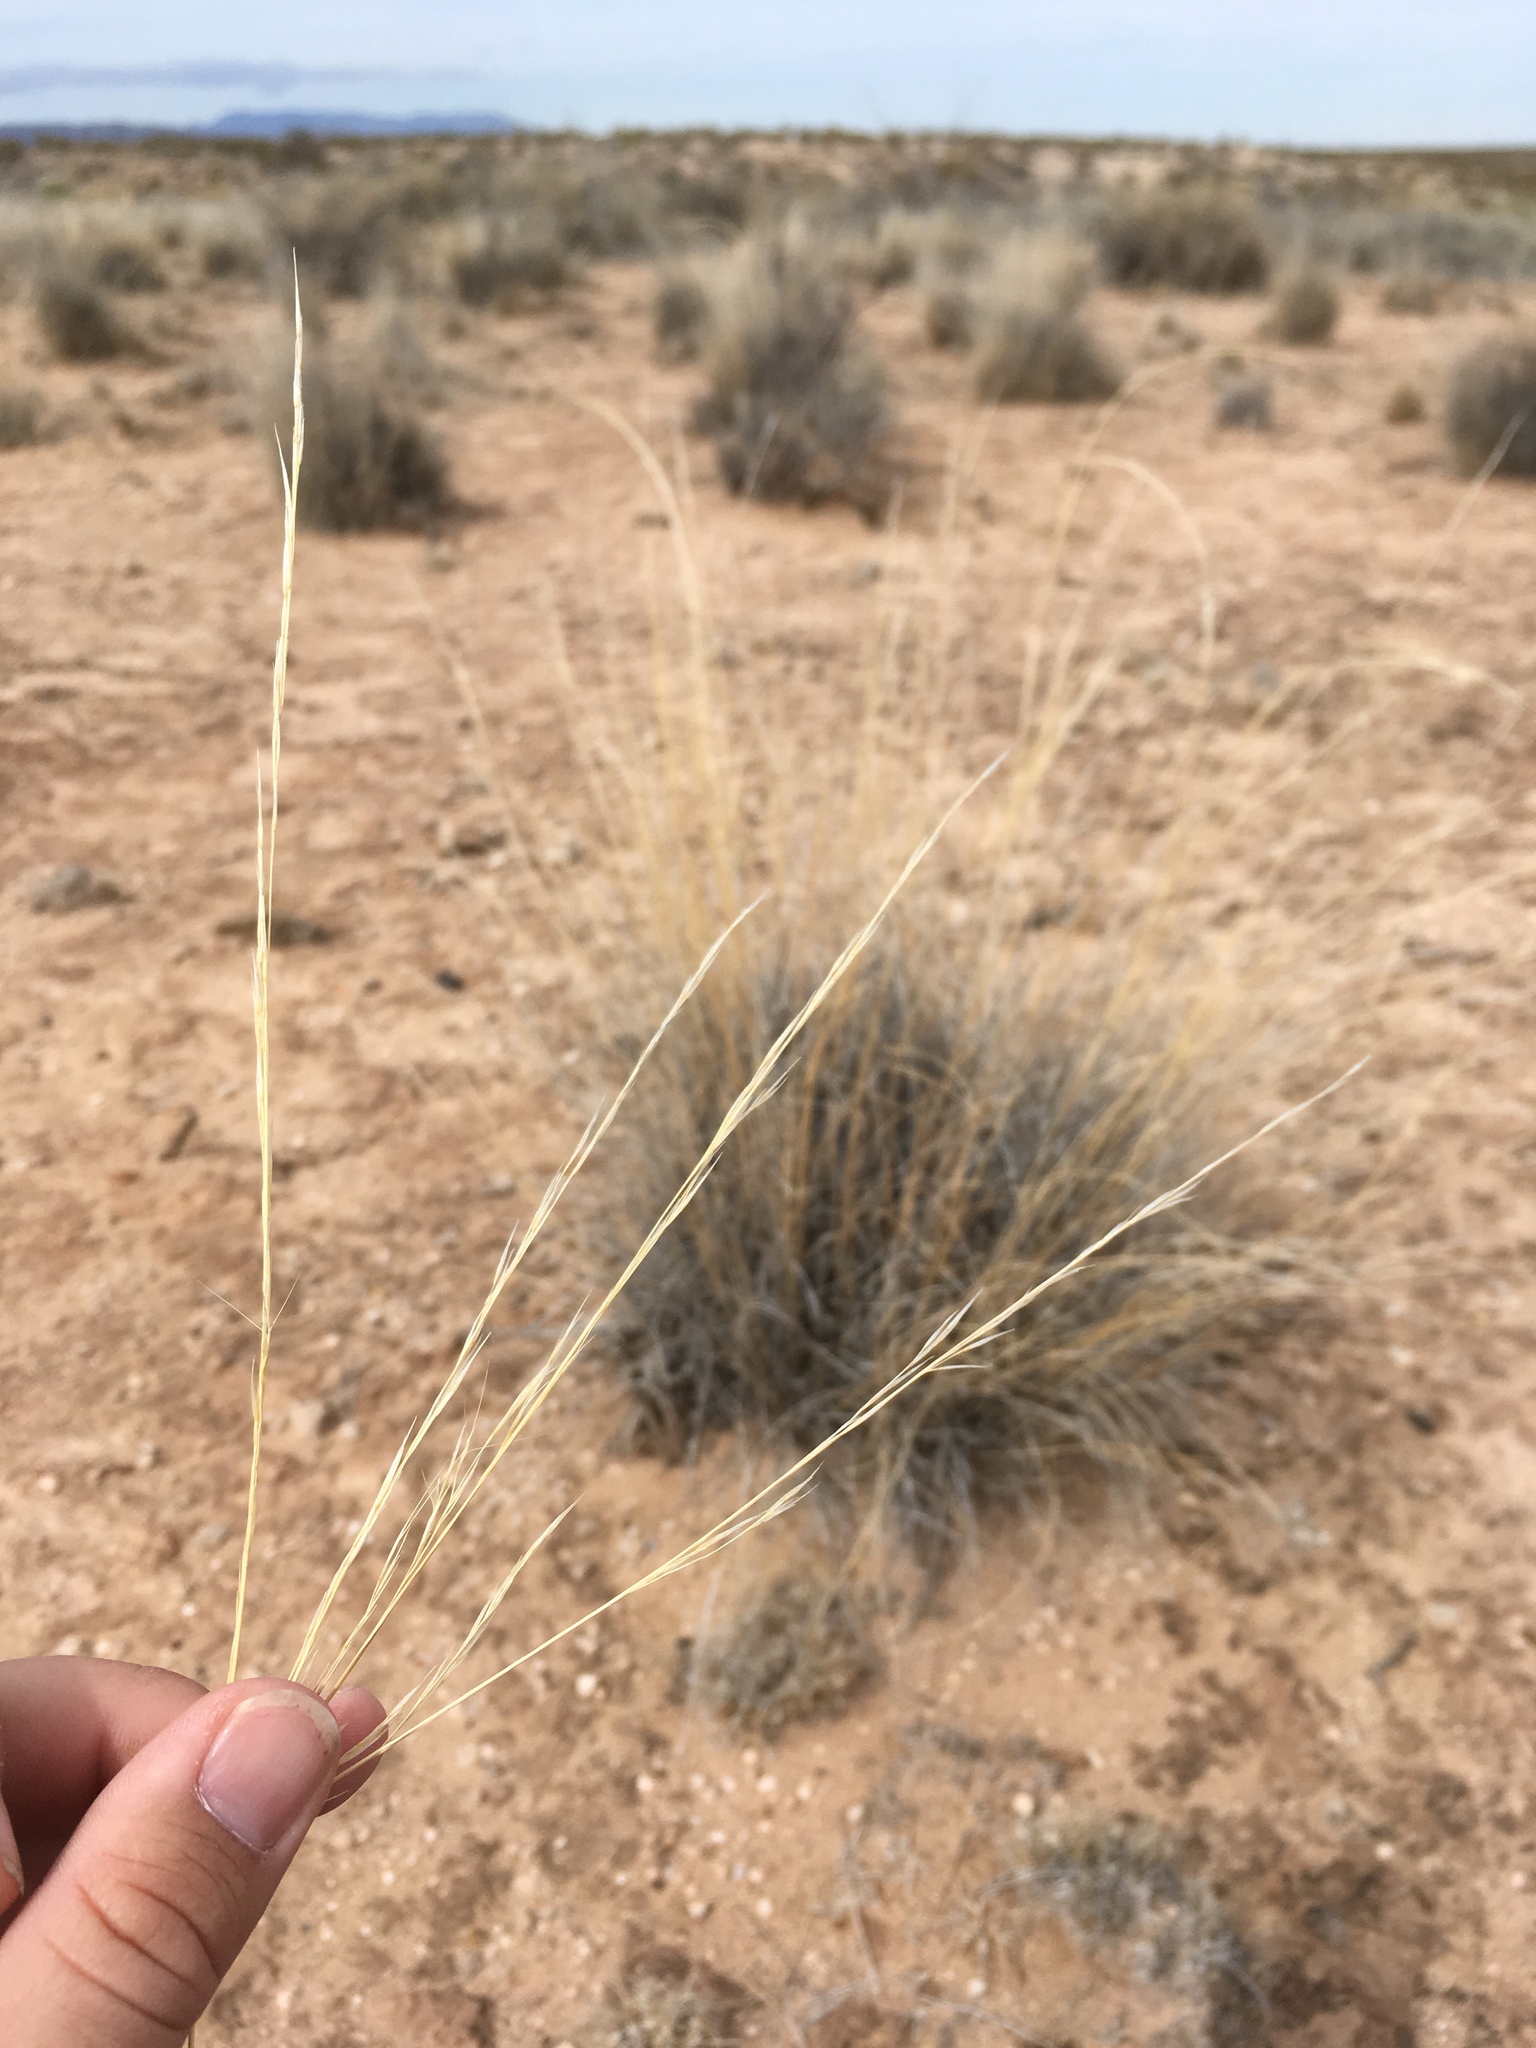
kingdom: Plantae
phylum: Tracheophyta
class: Liliopsida
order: Poales
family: Poaceae
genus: Aristida
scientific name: Aristida purpurea
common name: Purple threeawn
